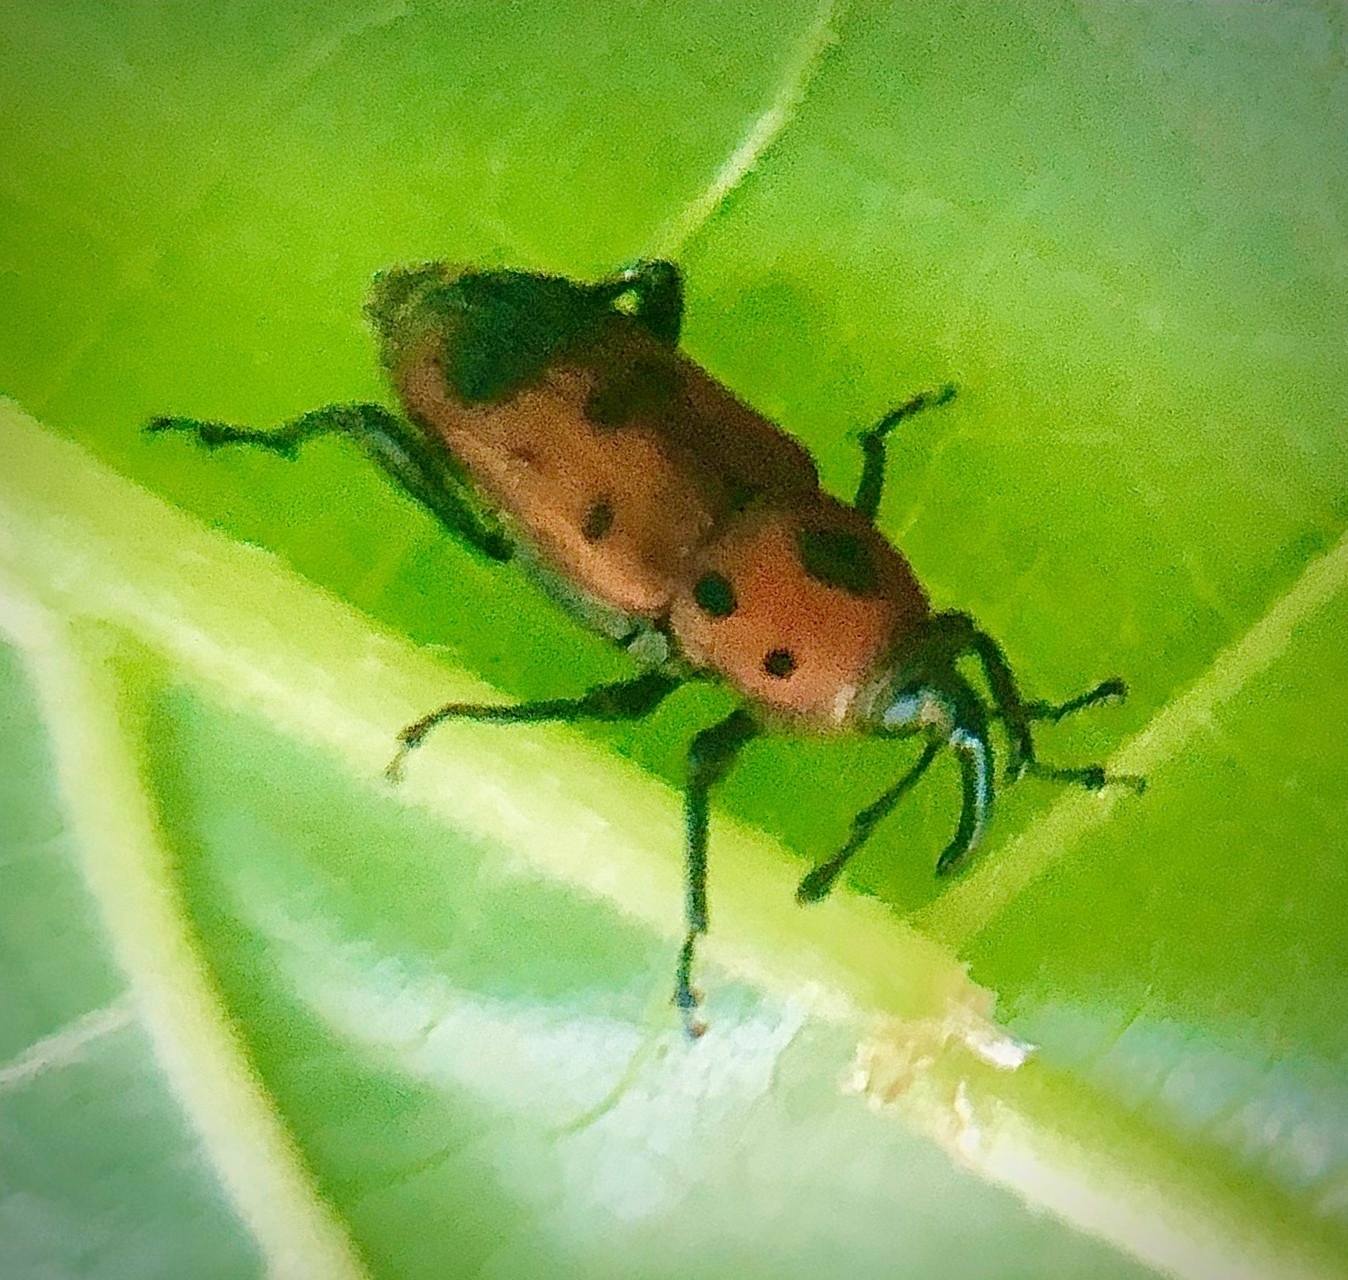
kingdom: Animalia
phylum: Arthropoda
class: Insecta
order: Coleoptera
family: Dryophthoridae
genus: Rhodobaenus
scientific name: Rhodobaenus quinquepunctatus
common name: Cocklebur weevil
